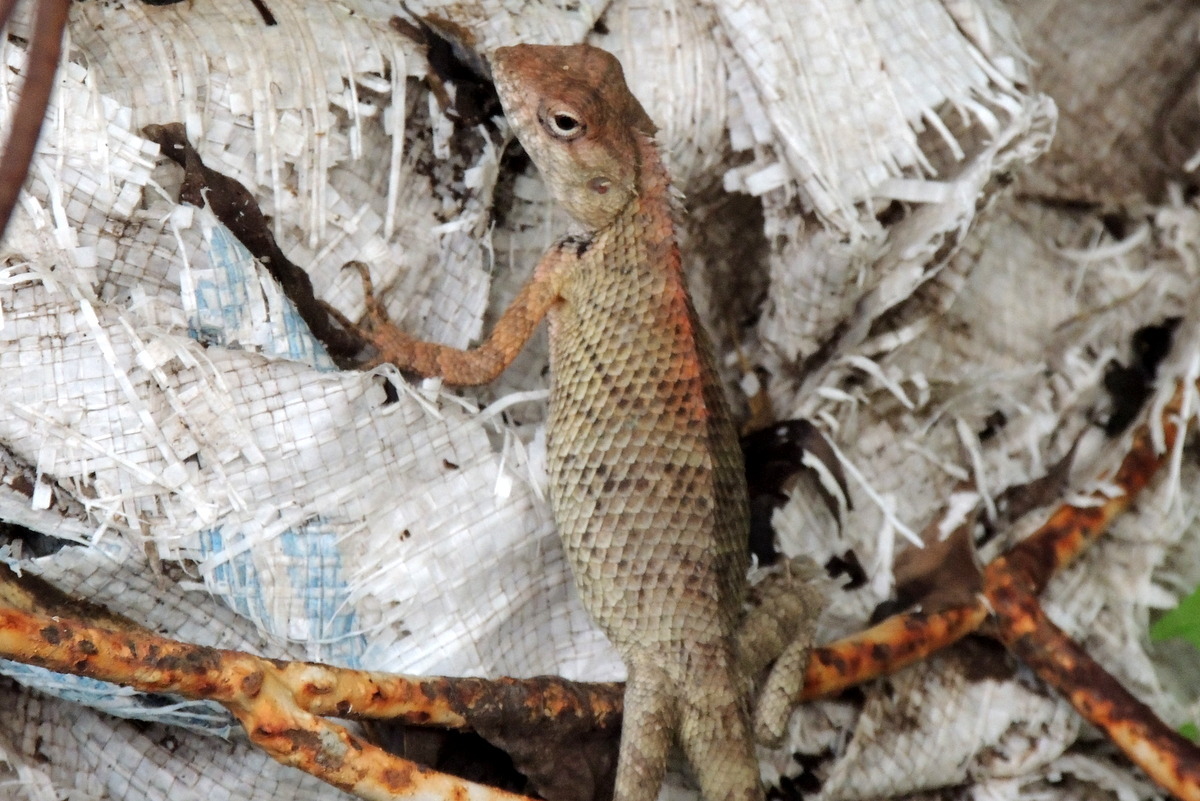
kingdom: Animalia
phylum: Chordata
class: Squamata
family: Agamidae
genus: Calotes
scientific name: Calotes versicolor
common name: Oriental garden lizard
